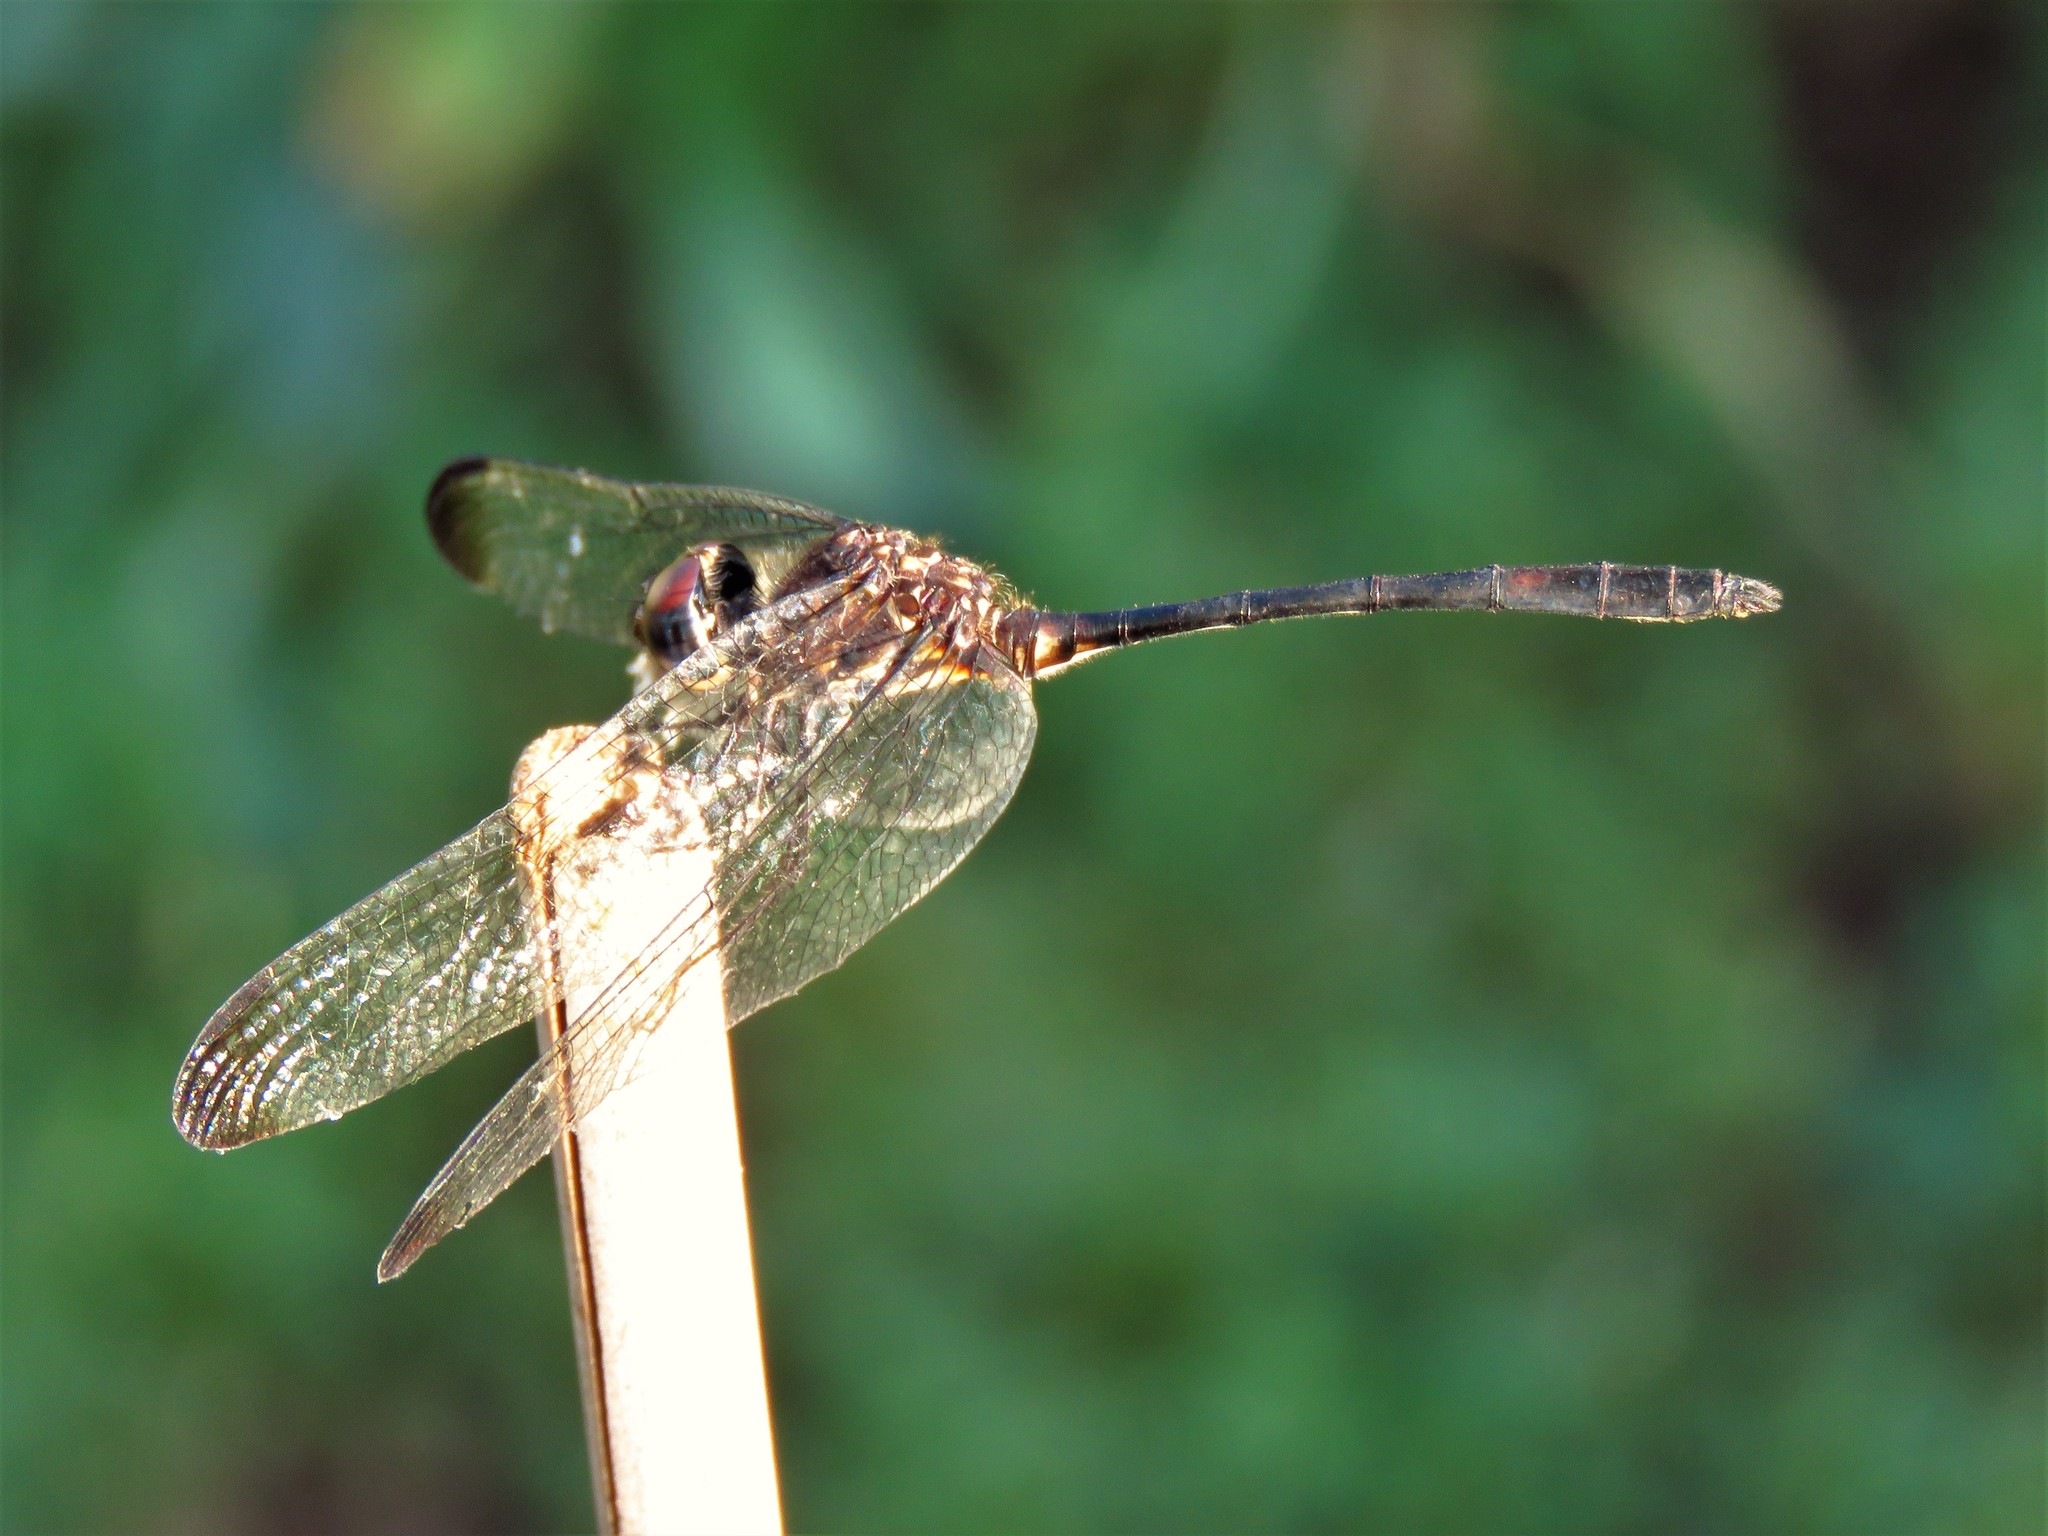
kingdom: Animalia
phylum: Arthropoda
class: Insecta
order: Odonata
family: Libellulidae
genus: Dythemis
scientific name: Dythemis velox
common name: Swift setwing
